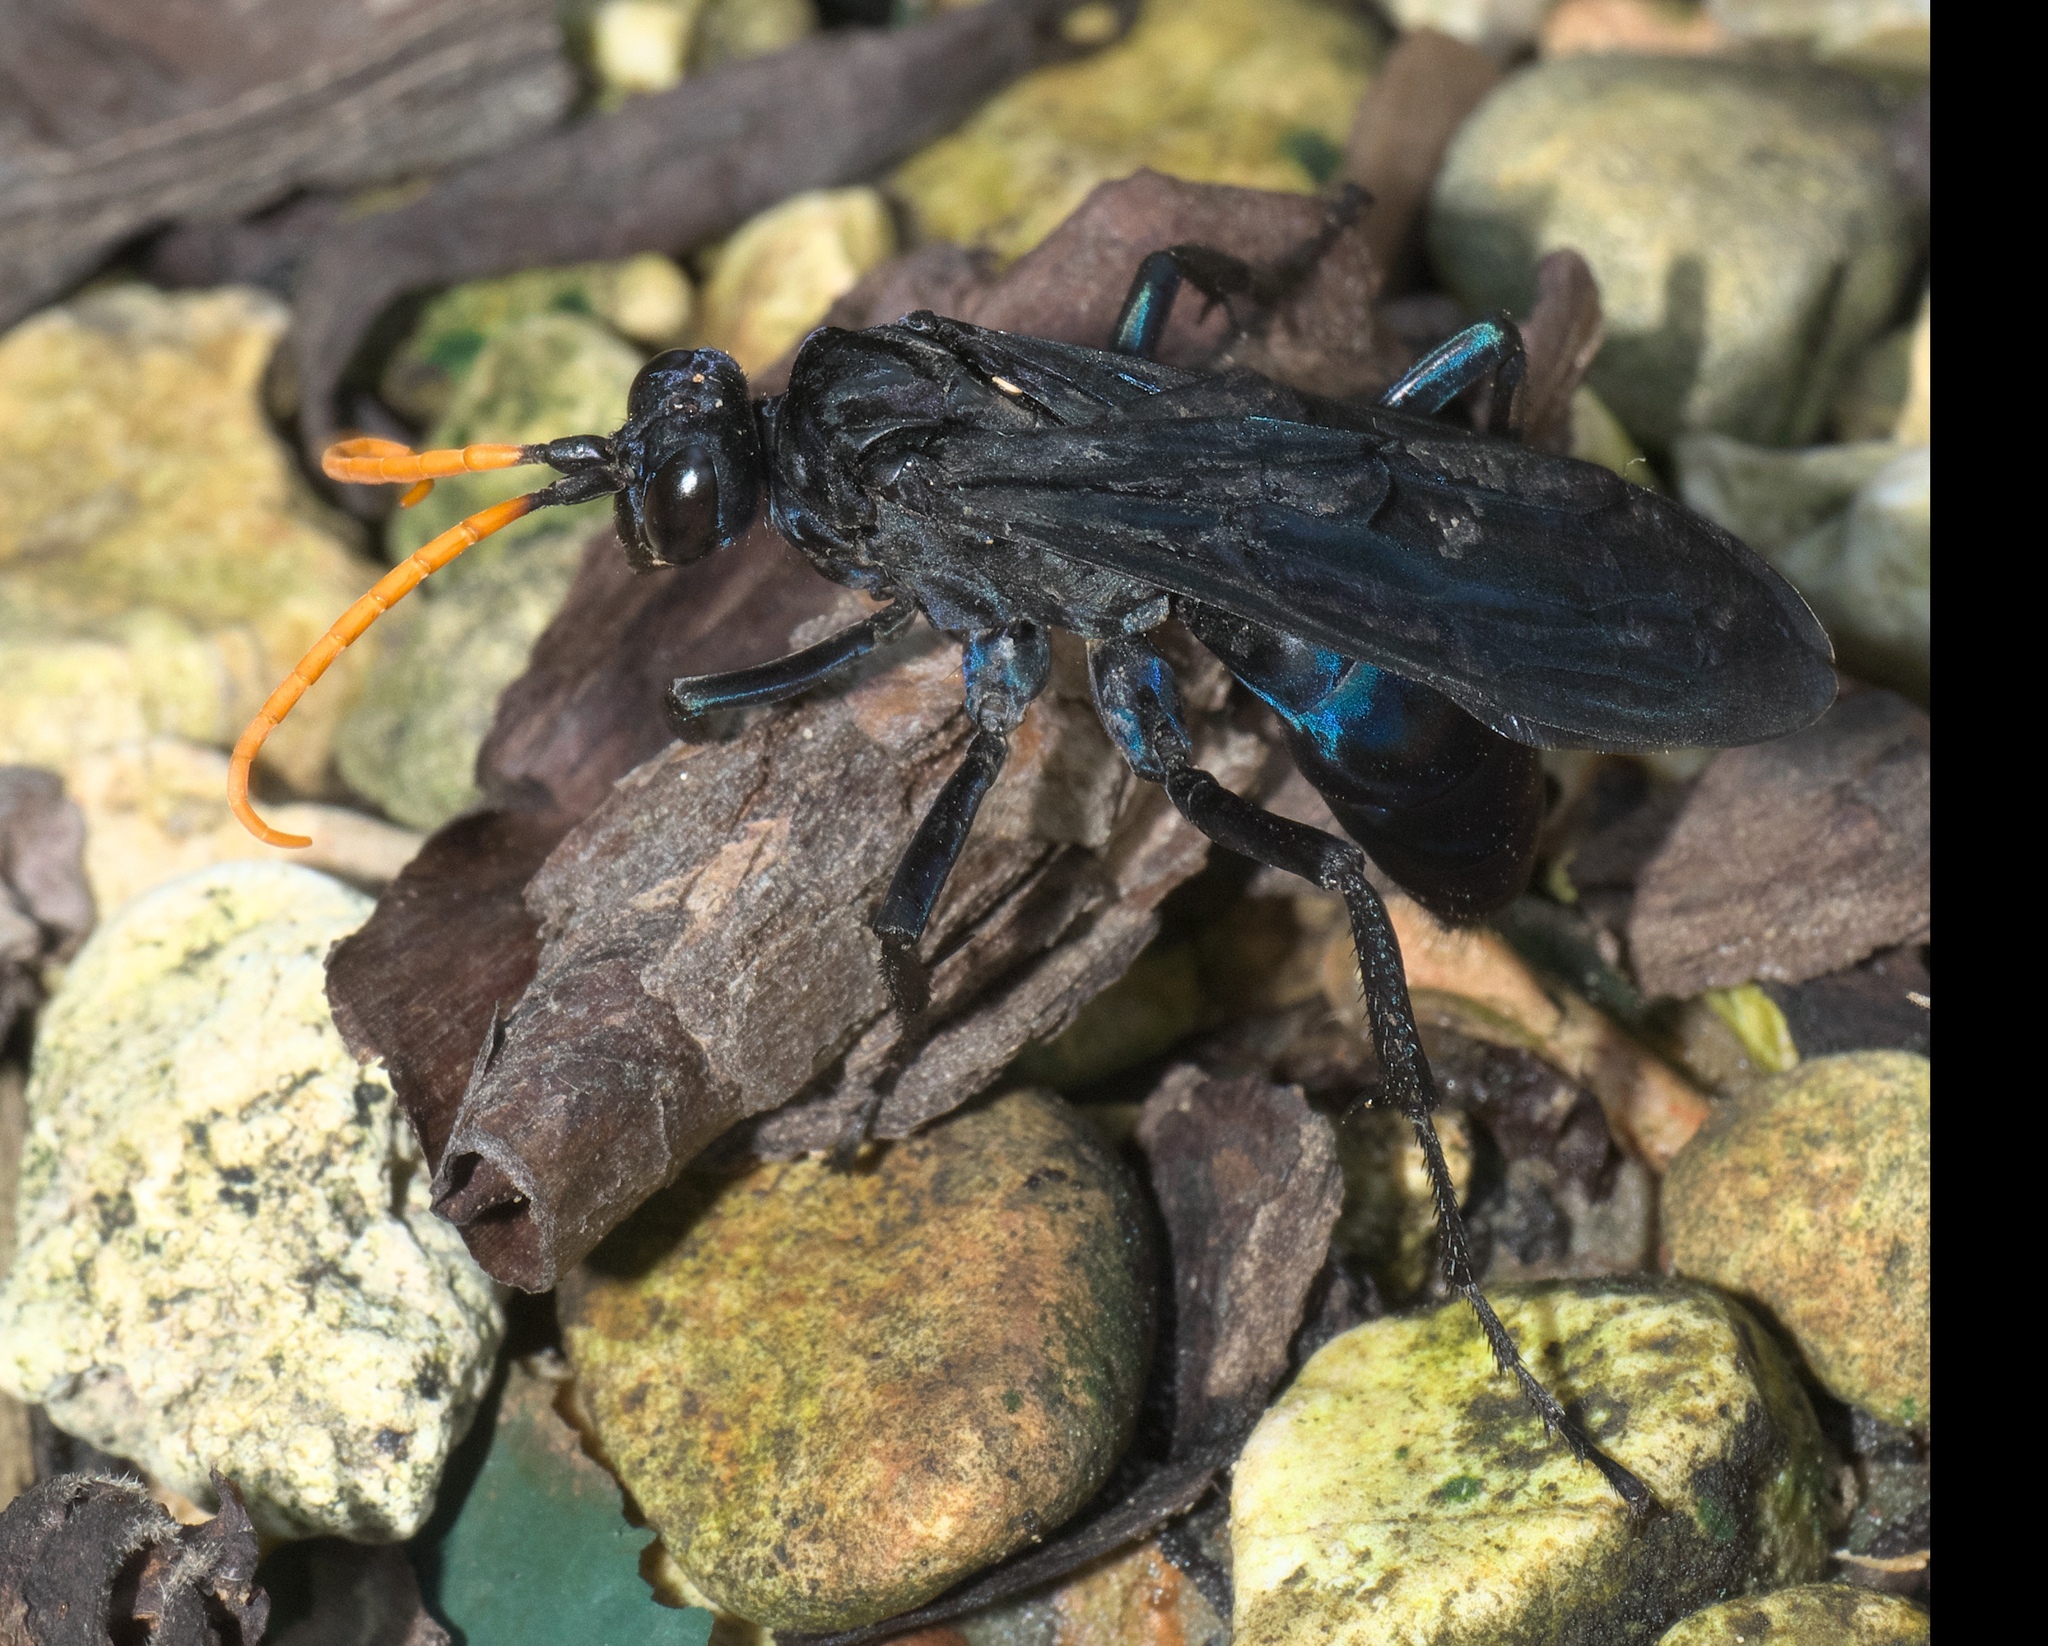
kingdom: Animalia
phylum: Arthropoda
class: Insecta
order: Hymenoptera
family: Pompilidae
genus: Pepsis
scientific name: Pepsis menechma
